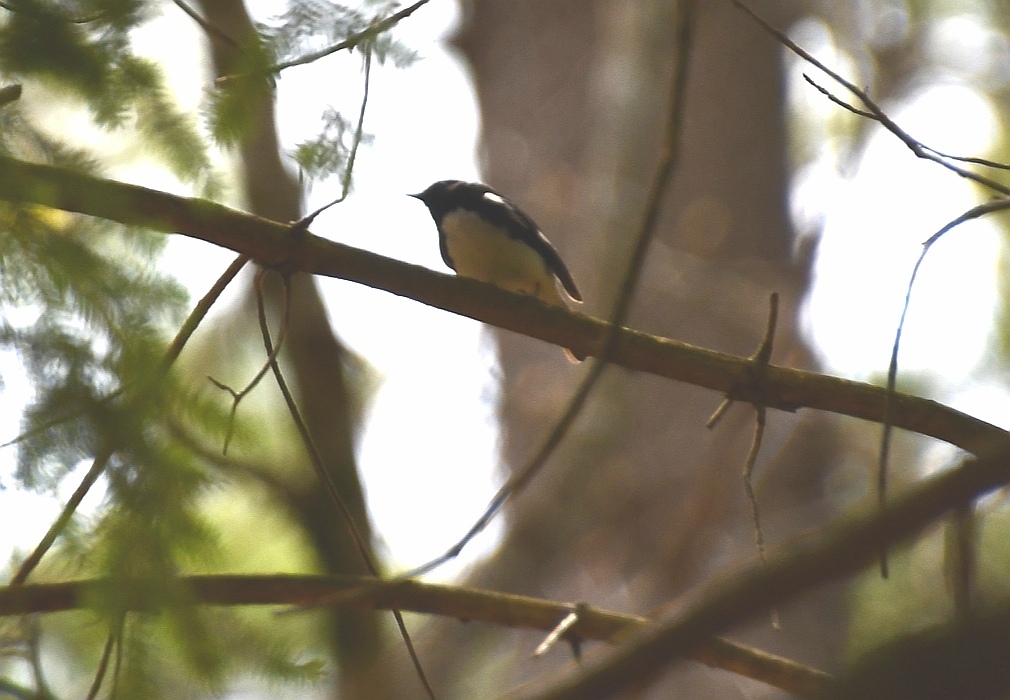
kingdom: Animalia
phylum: Chordata
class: Aves
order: Passeriformes
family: Parulidae
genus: Setophaga
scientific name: Setophaga caerulescens
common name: Black-throated blue warbler
